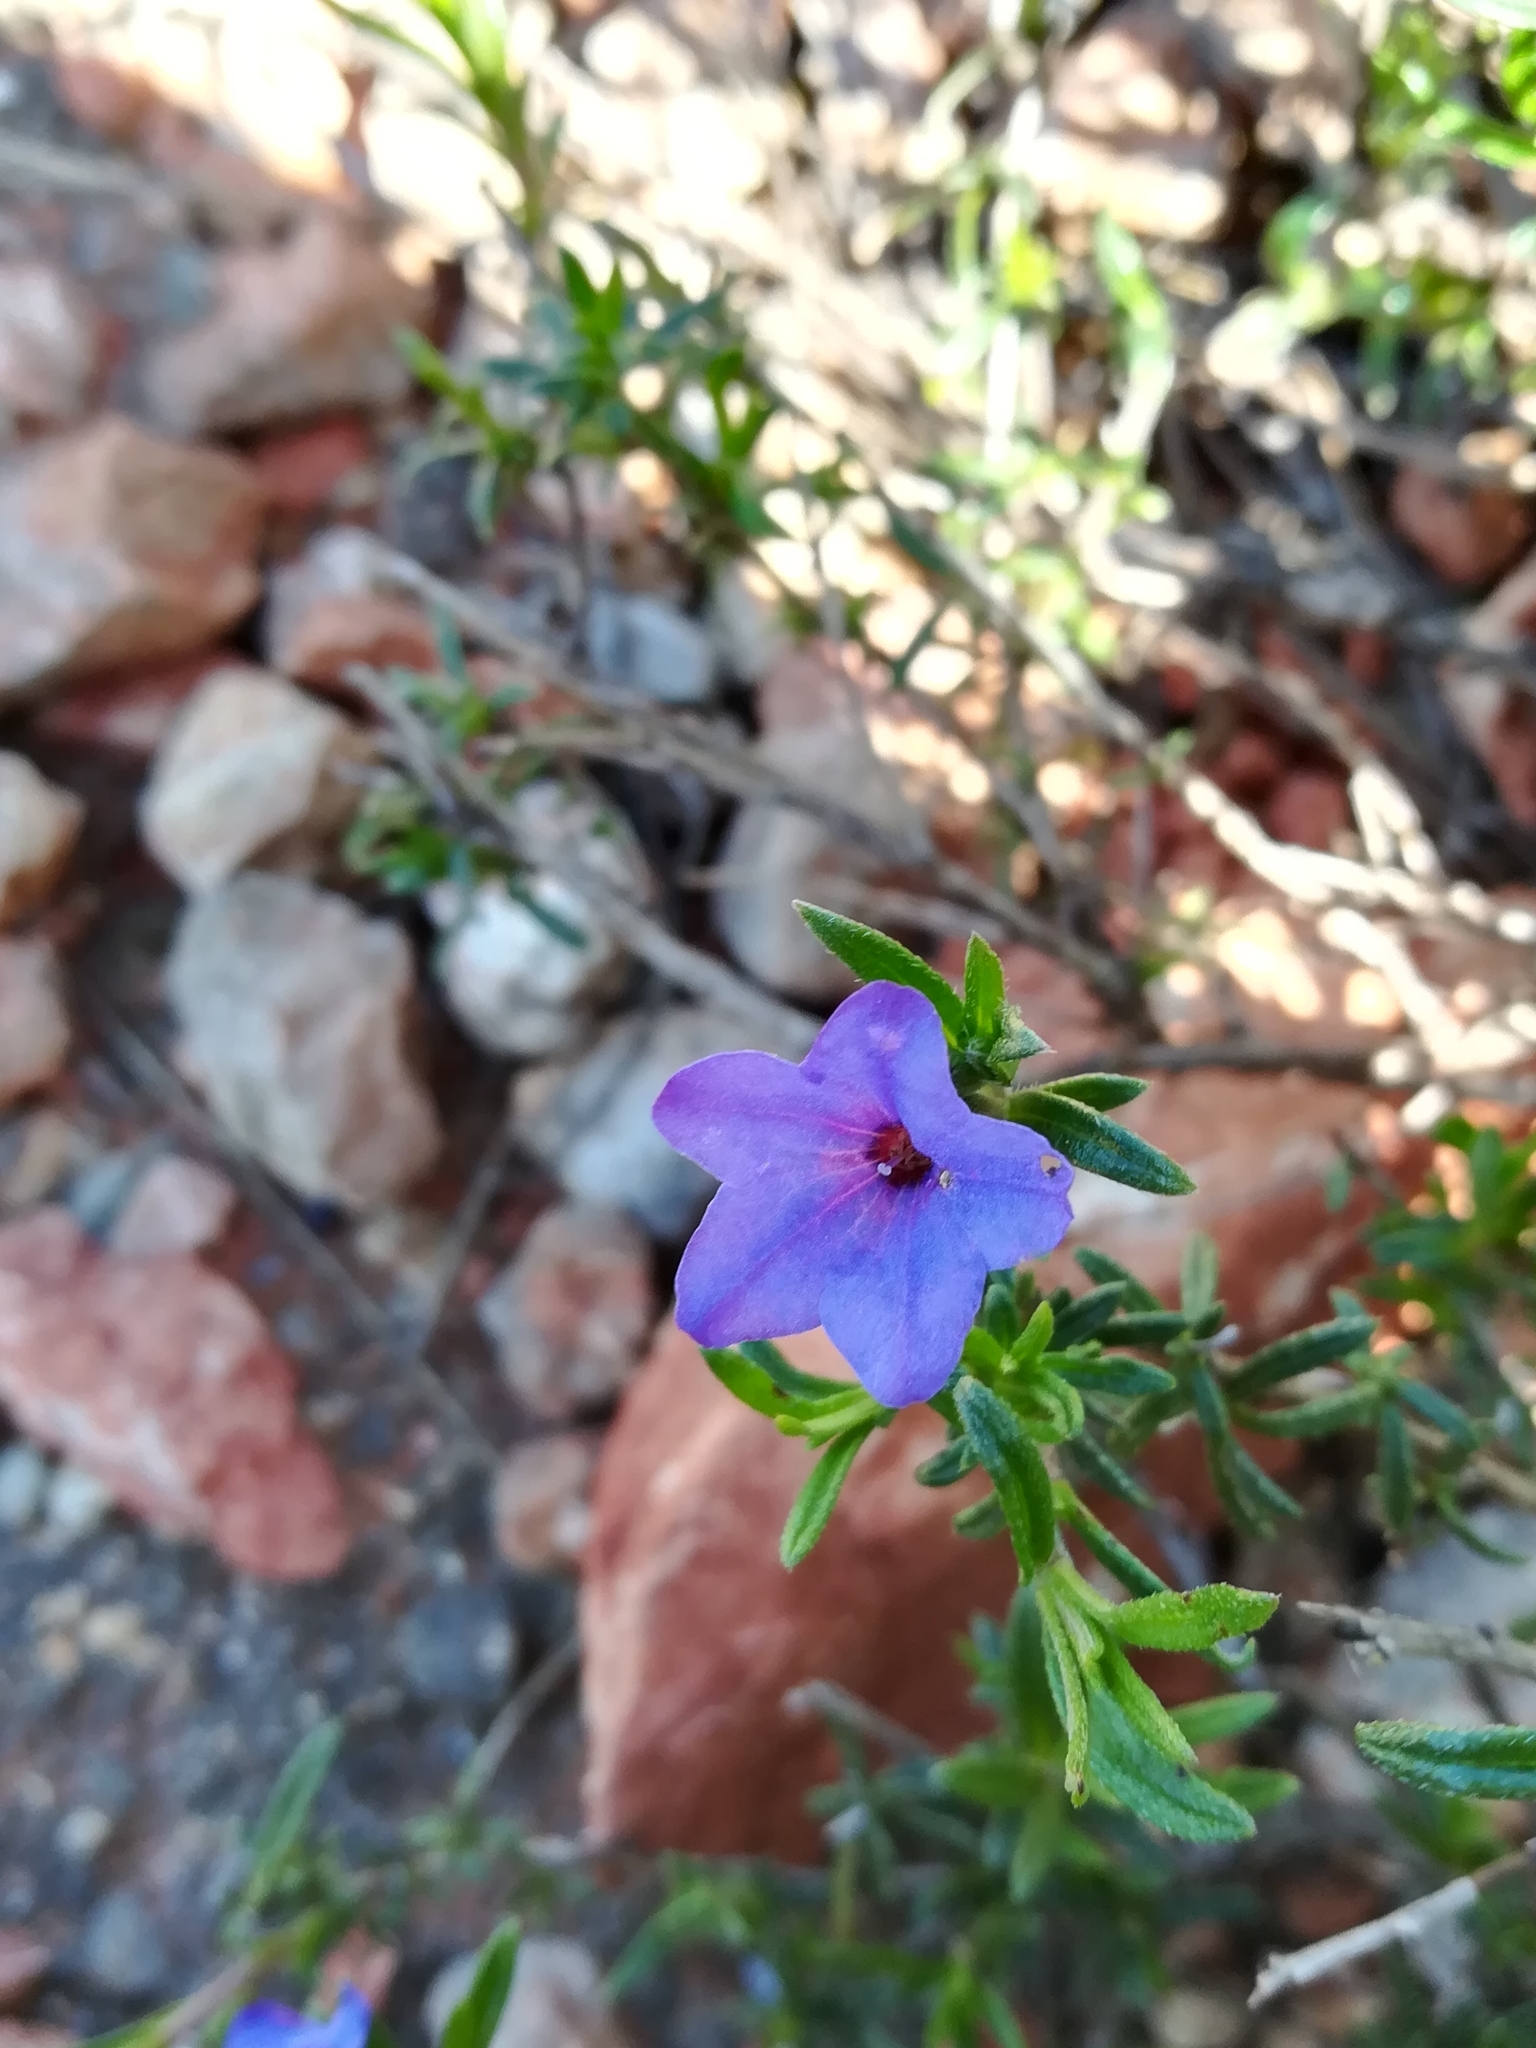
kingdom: Plantae
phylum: Tracheophyta
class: Magnoliopsida
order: Boraginales
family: Boraginaceae
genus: Lithodora
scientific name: Lithodora fruticosa
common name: Shrubby gromwell
